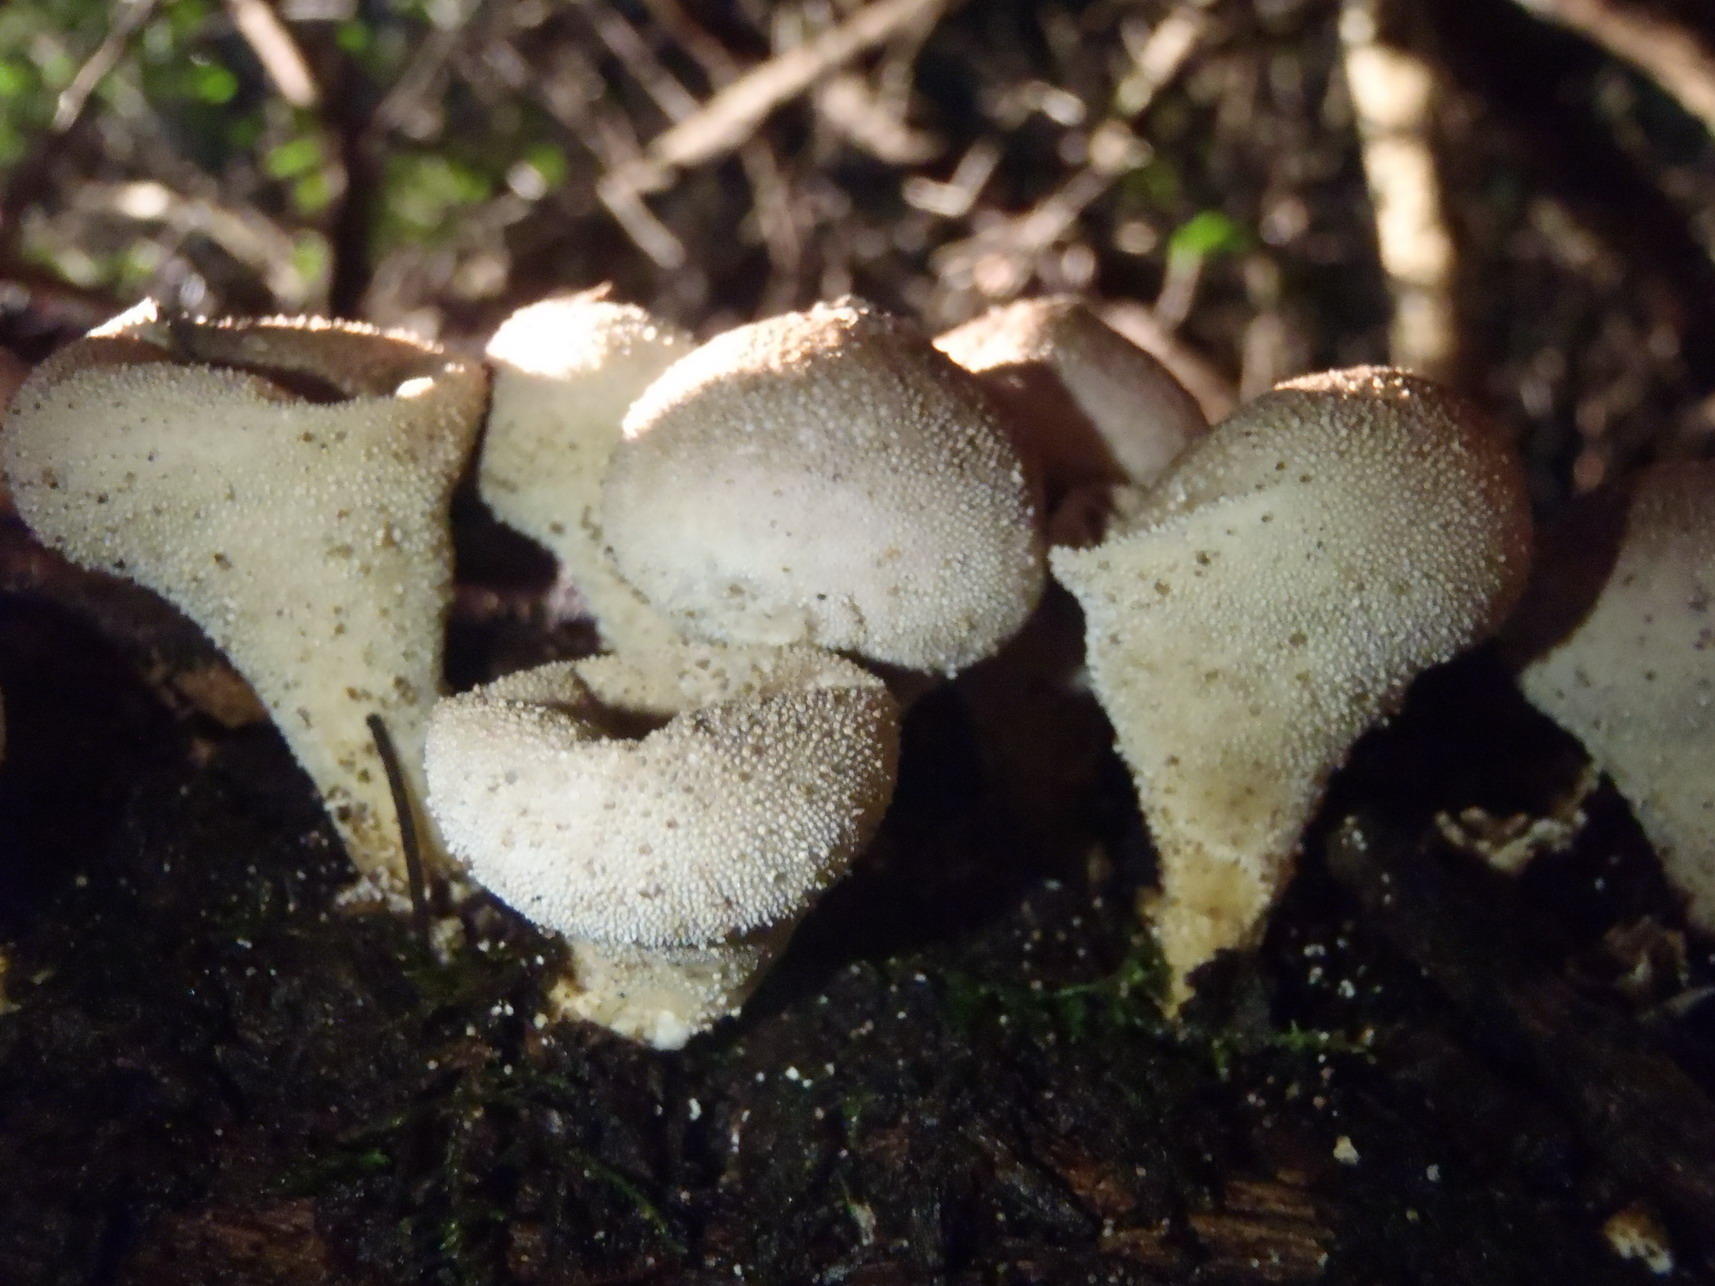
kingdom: Fungi
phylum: Basidiomycota
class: Agaricomycetes
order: Agaricales
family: Lycoperdaceae
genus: Lycoperdon
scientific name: Lycoperdon pratense
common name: Meadow puffball
